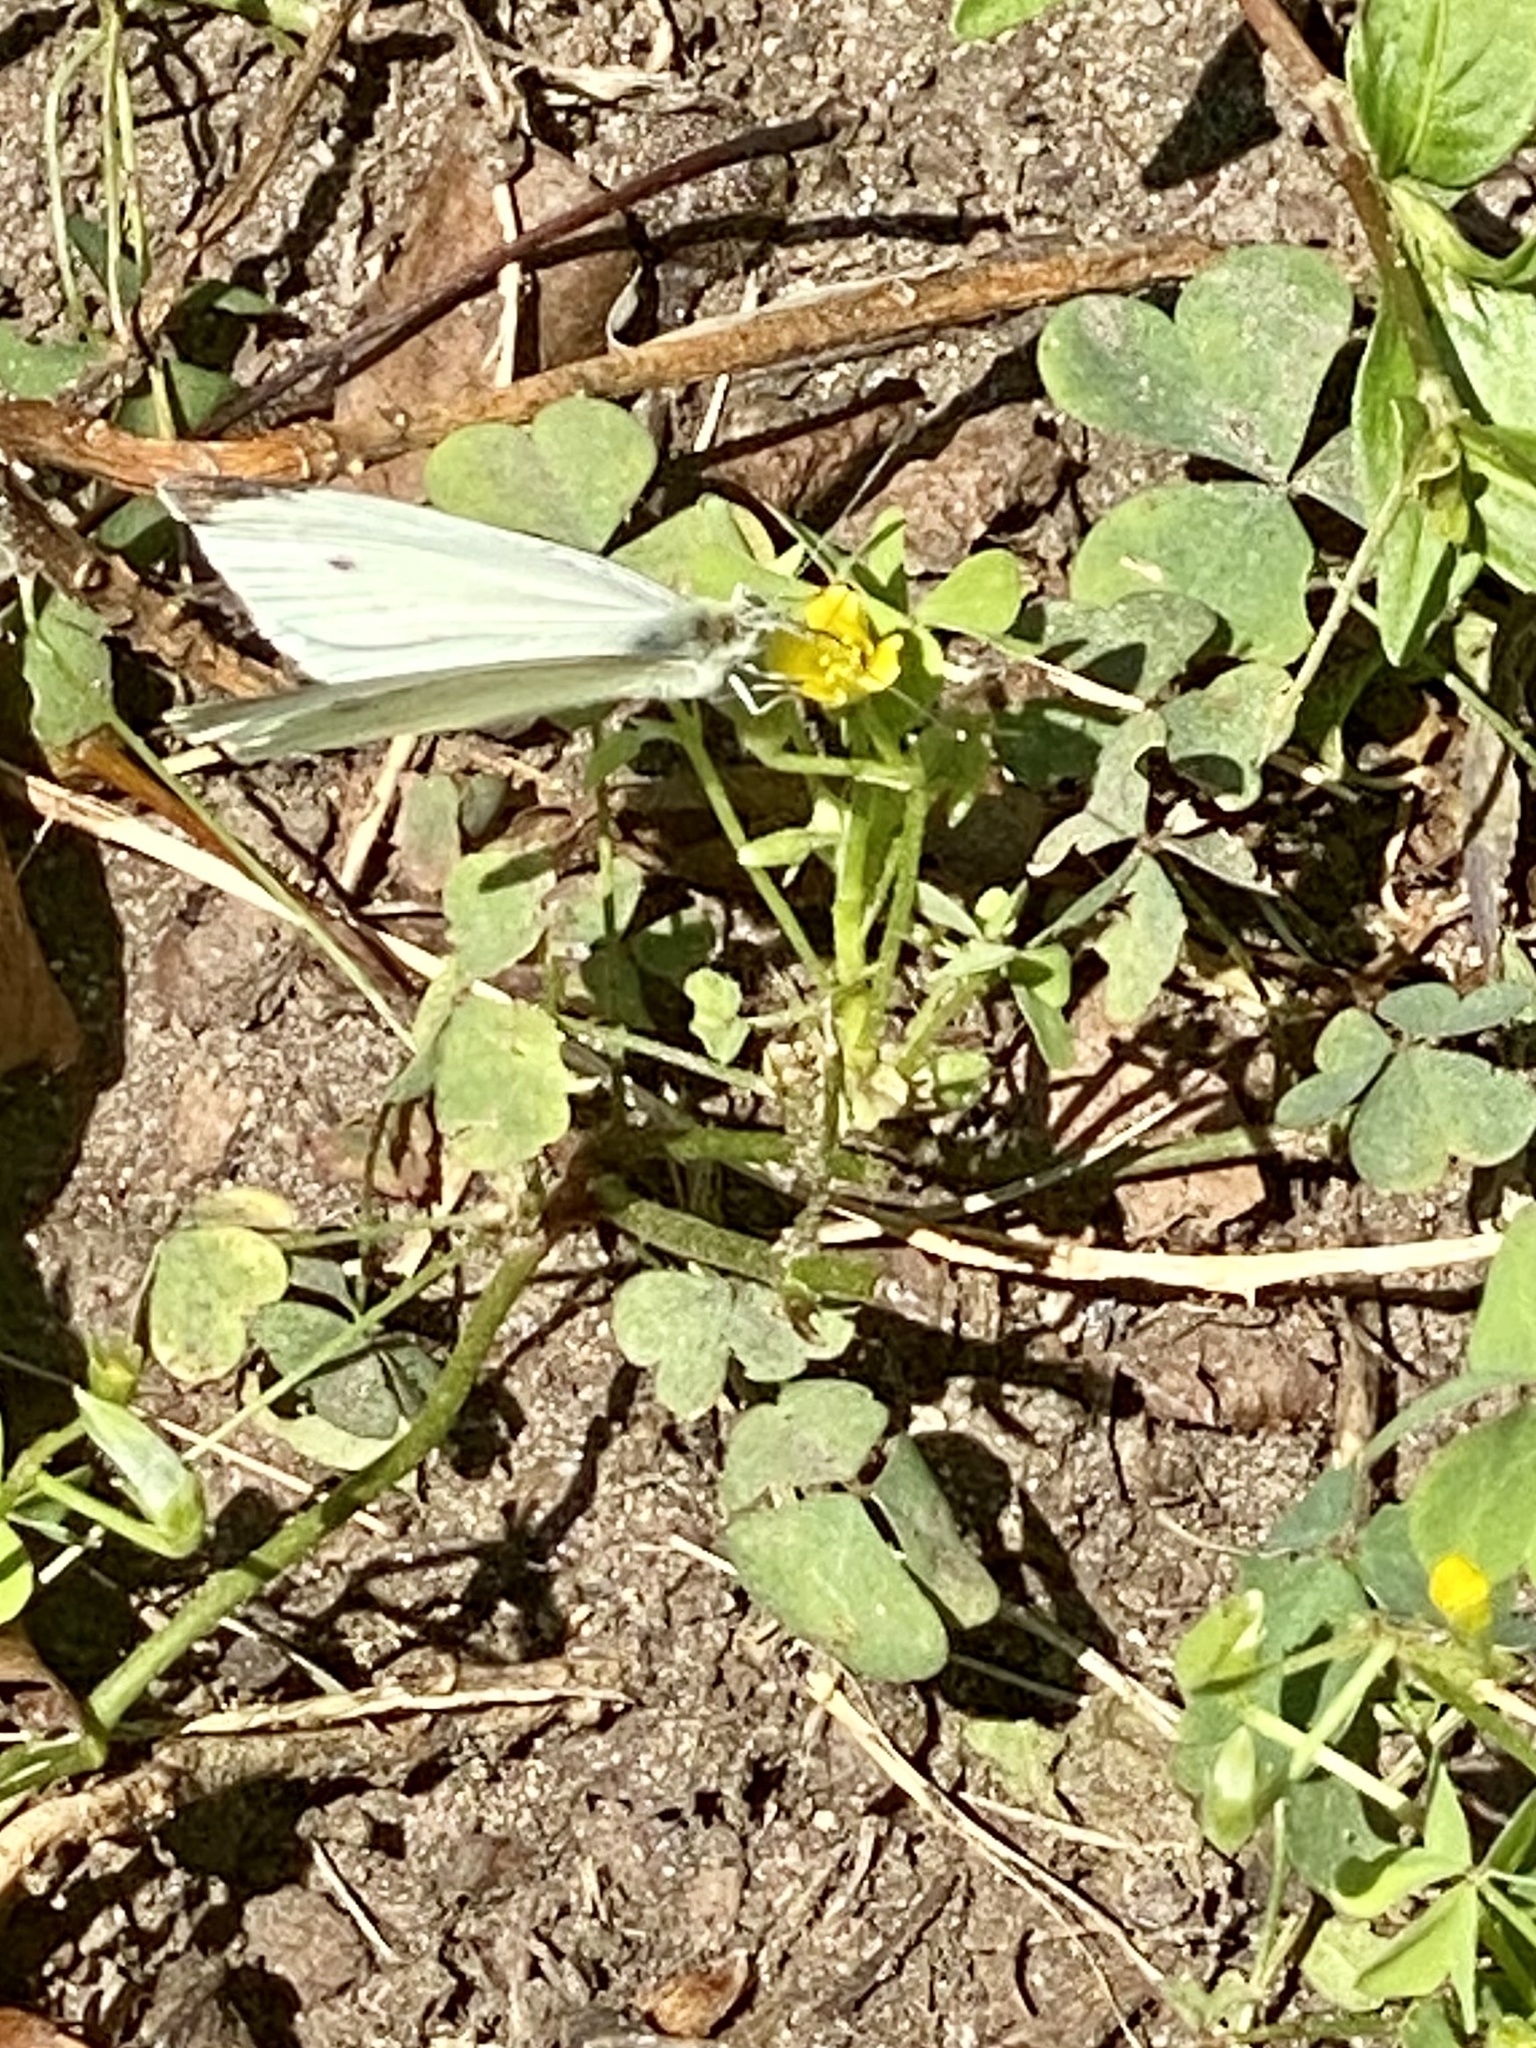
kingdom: Animalia
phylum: Arthropoda
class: Insecta
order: Lepidoptera
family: Pieridae
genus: Pieris
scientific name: Pieris rapae
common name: Small white
